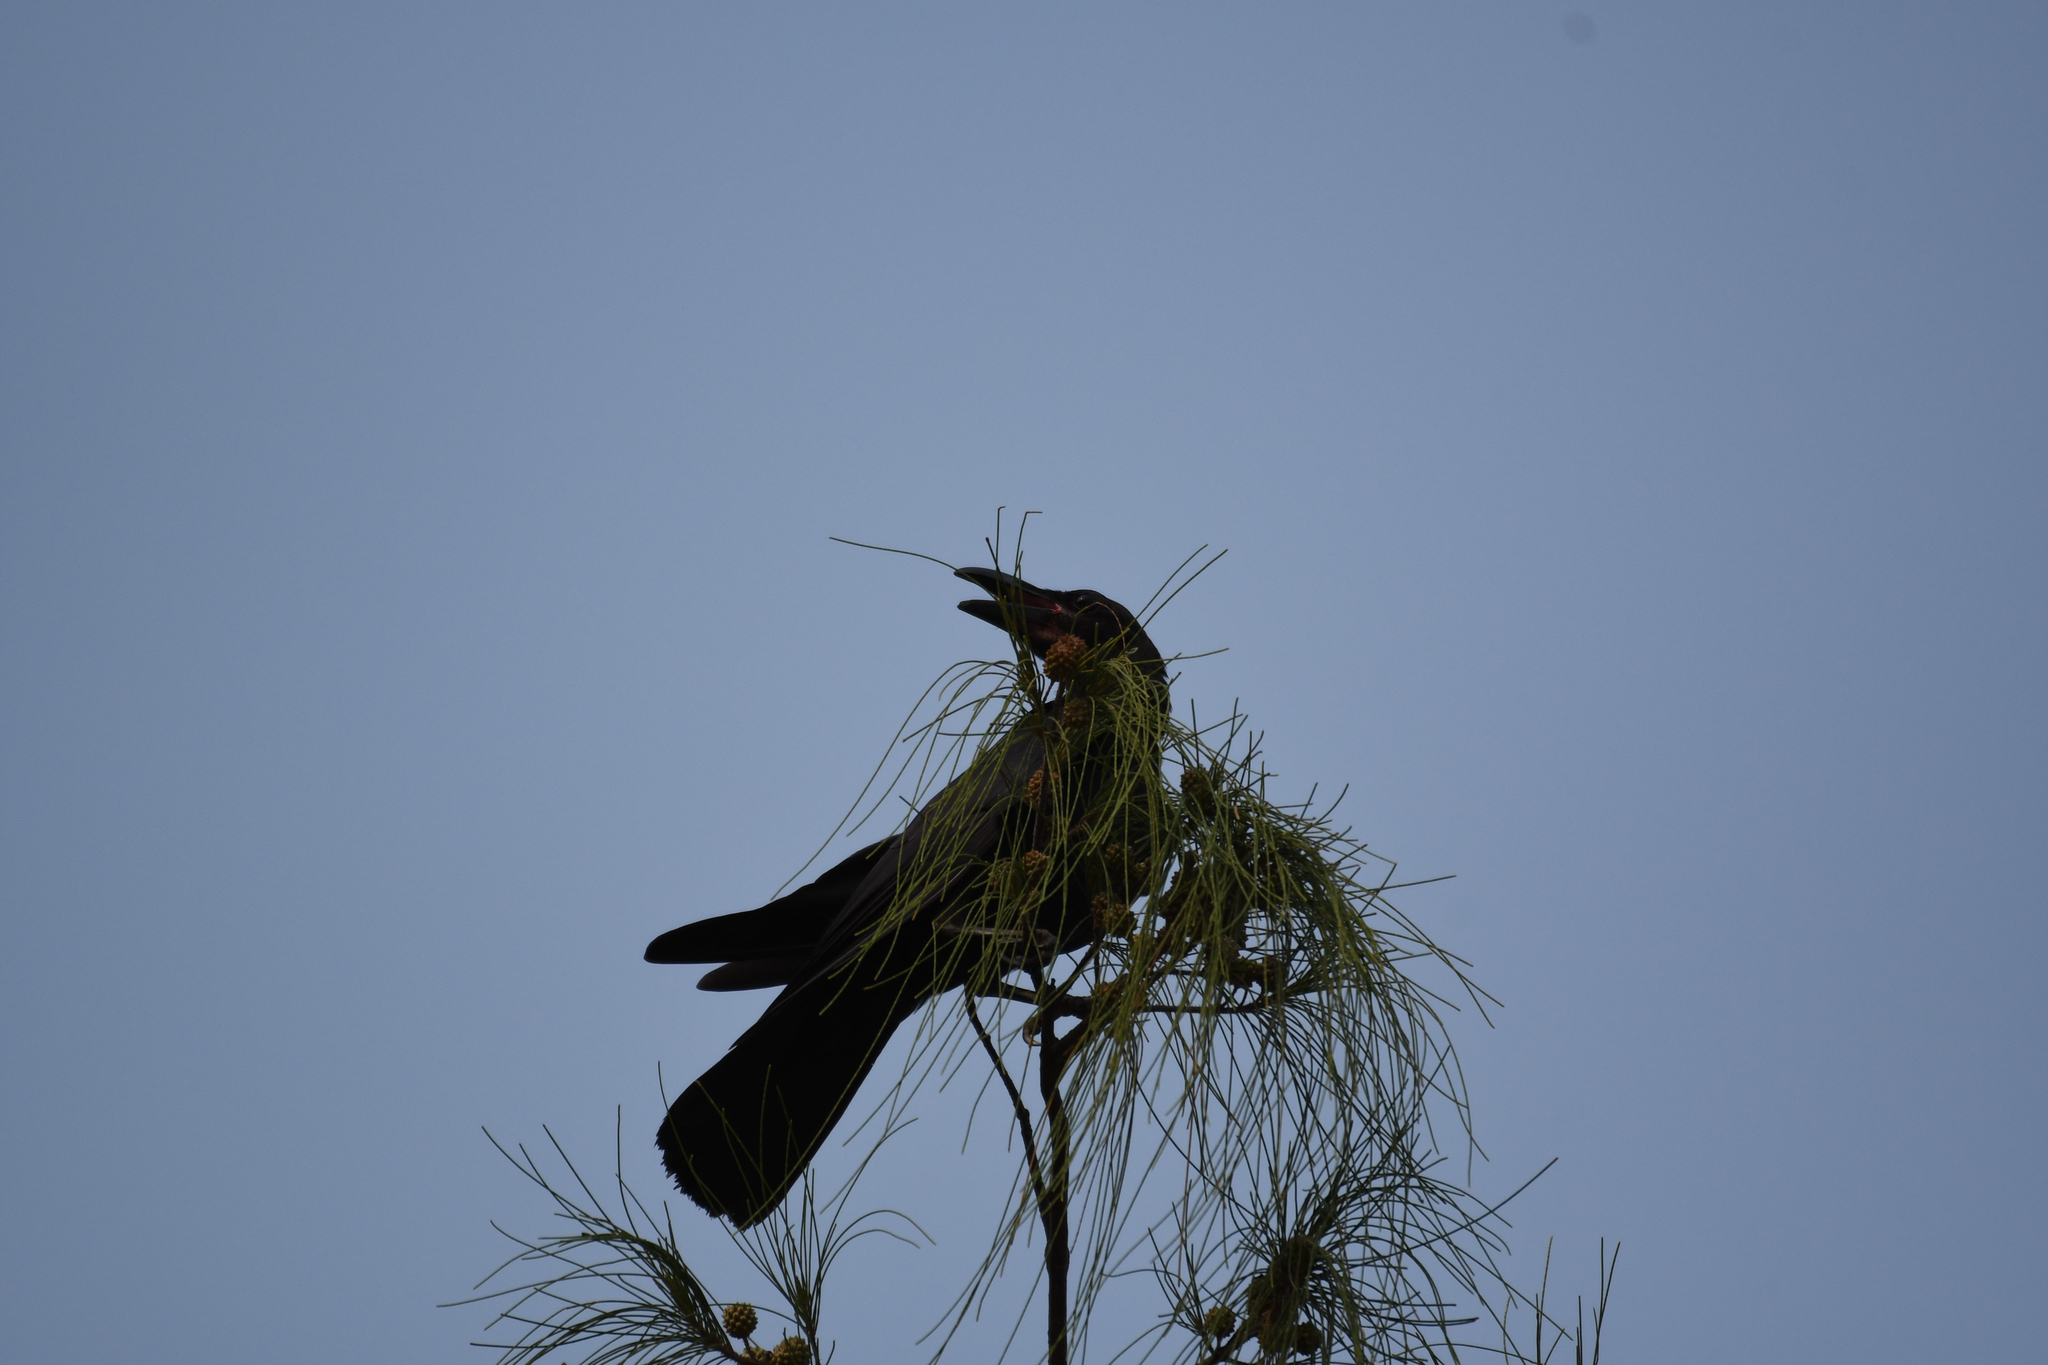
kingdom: Animalia
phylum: Chordata
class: Aves
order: Passeriformes
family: Corvidae
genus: Corvus
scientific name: Corvus macrorhynchos
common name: Large-billed crow
